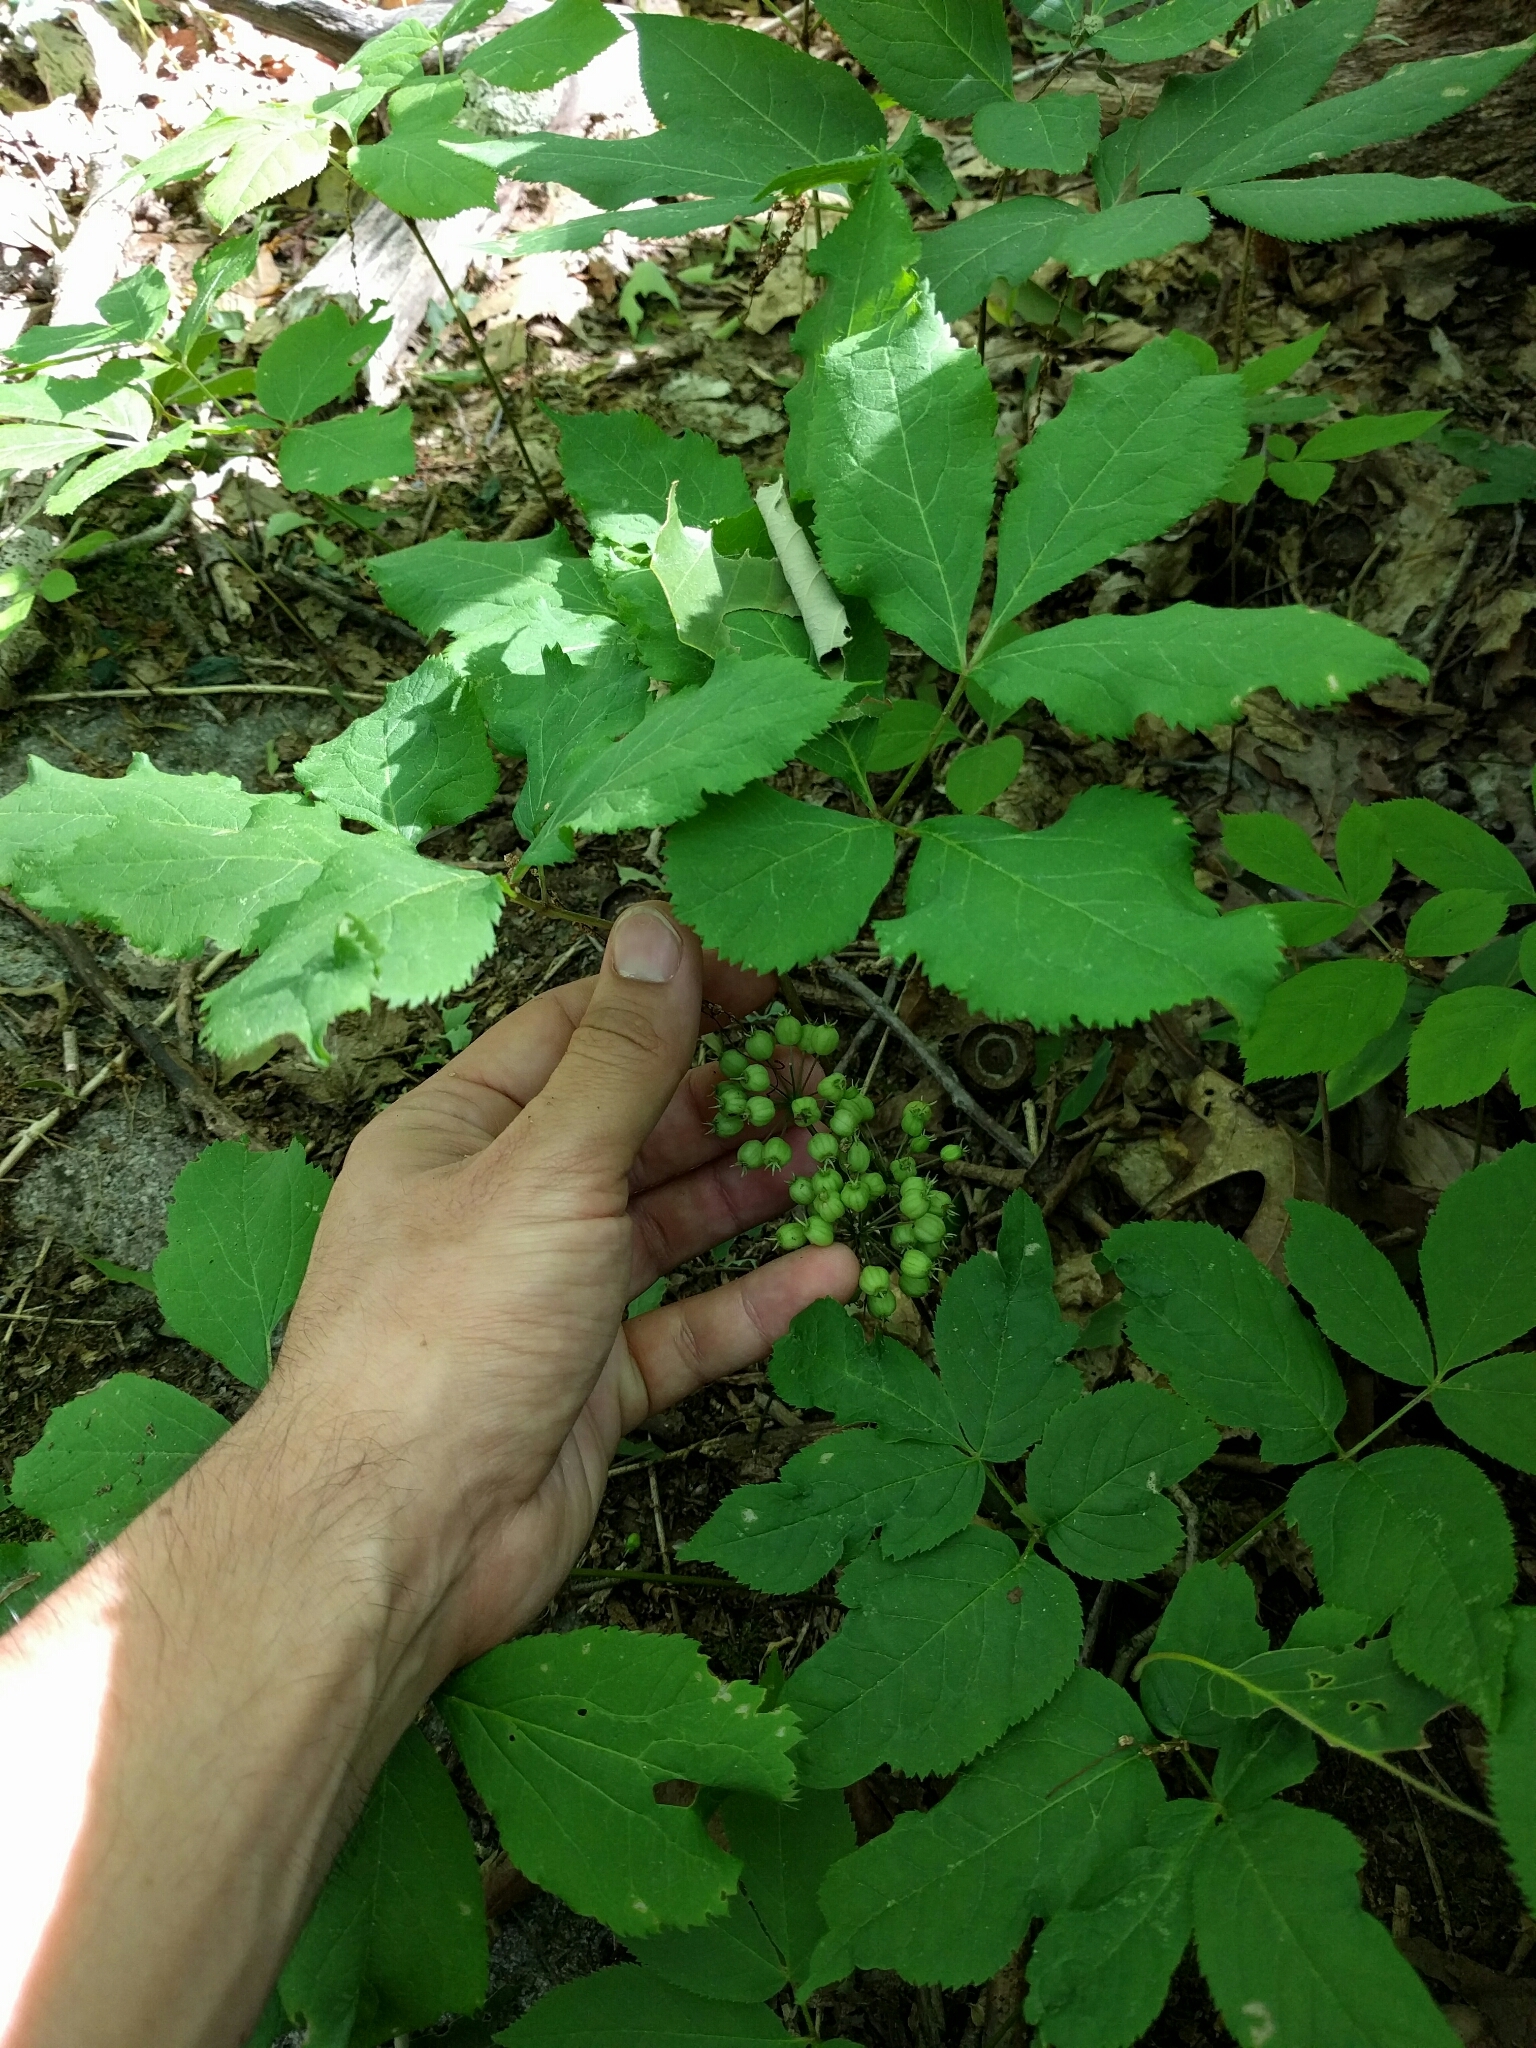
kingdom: Plantae
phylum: Tracheophyta
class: Magnoliopsida
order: Apiales
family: Araliaceae
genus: Aralia
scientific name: Aralia nudicaulis
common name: Wild sarsaparilla
